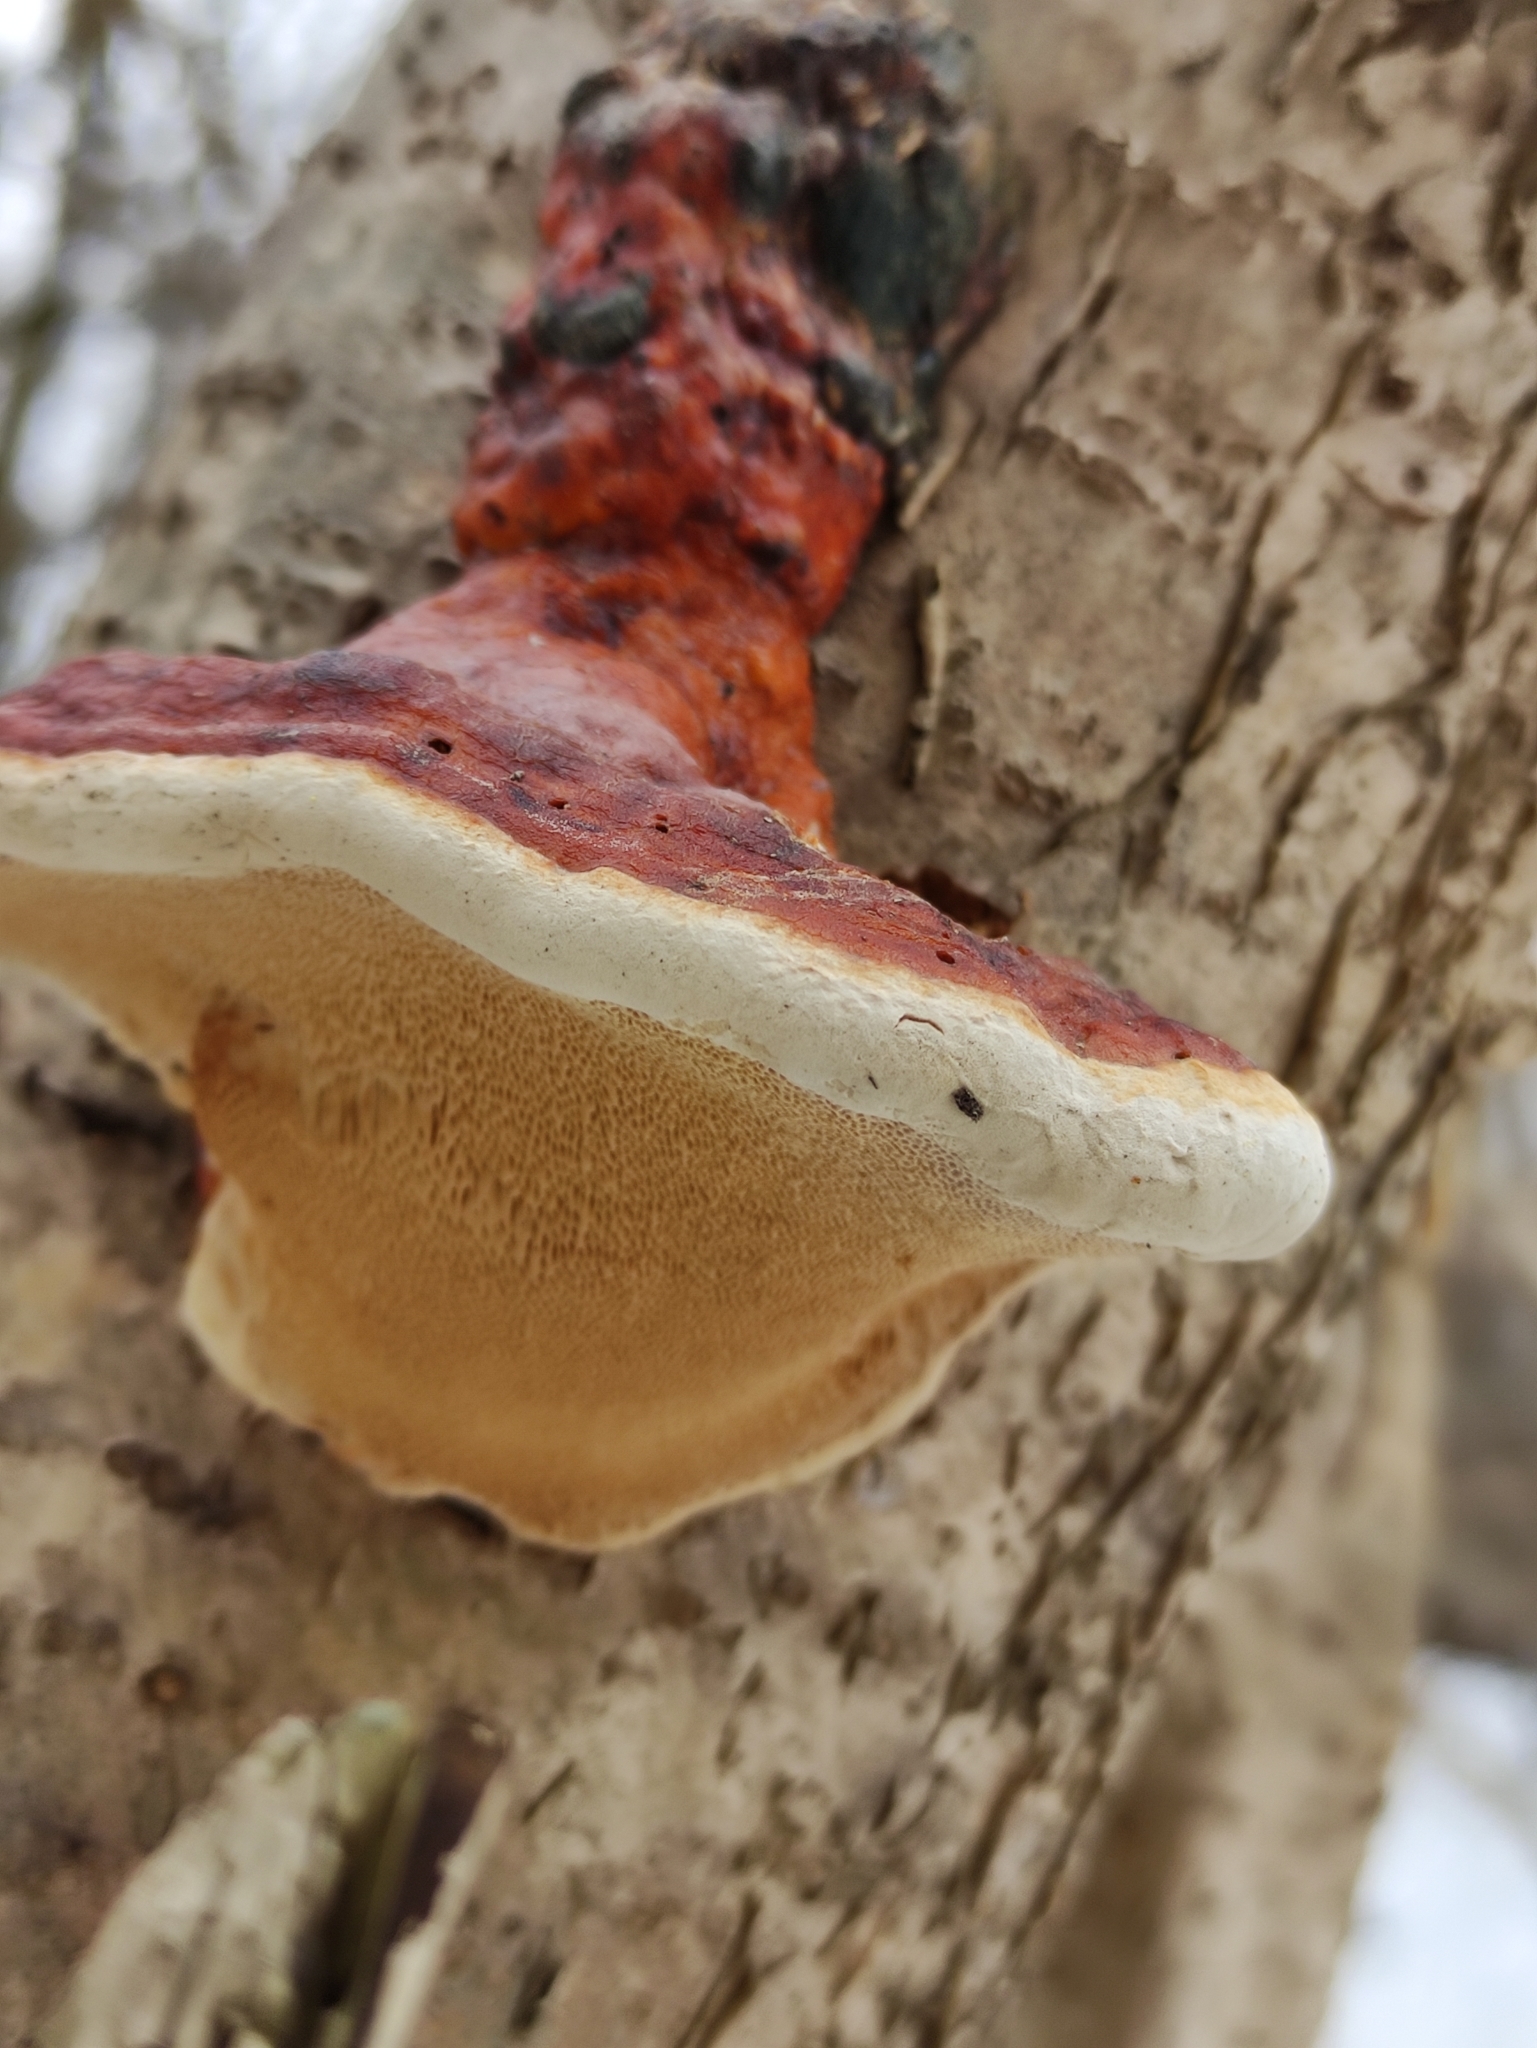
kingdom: Fungi
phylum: Basidiomycota
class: Agaricomycetes
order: Polyporales
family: Fomitopsidaceae
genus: Fomitopsis
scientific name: Fomitopsis pinicola
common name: Red-belted bracket
